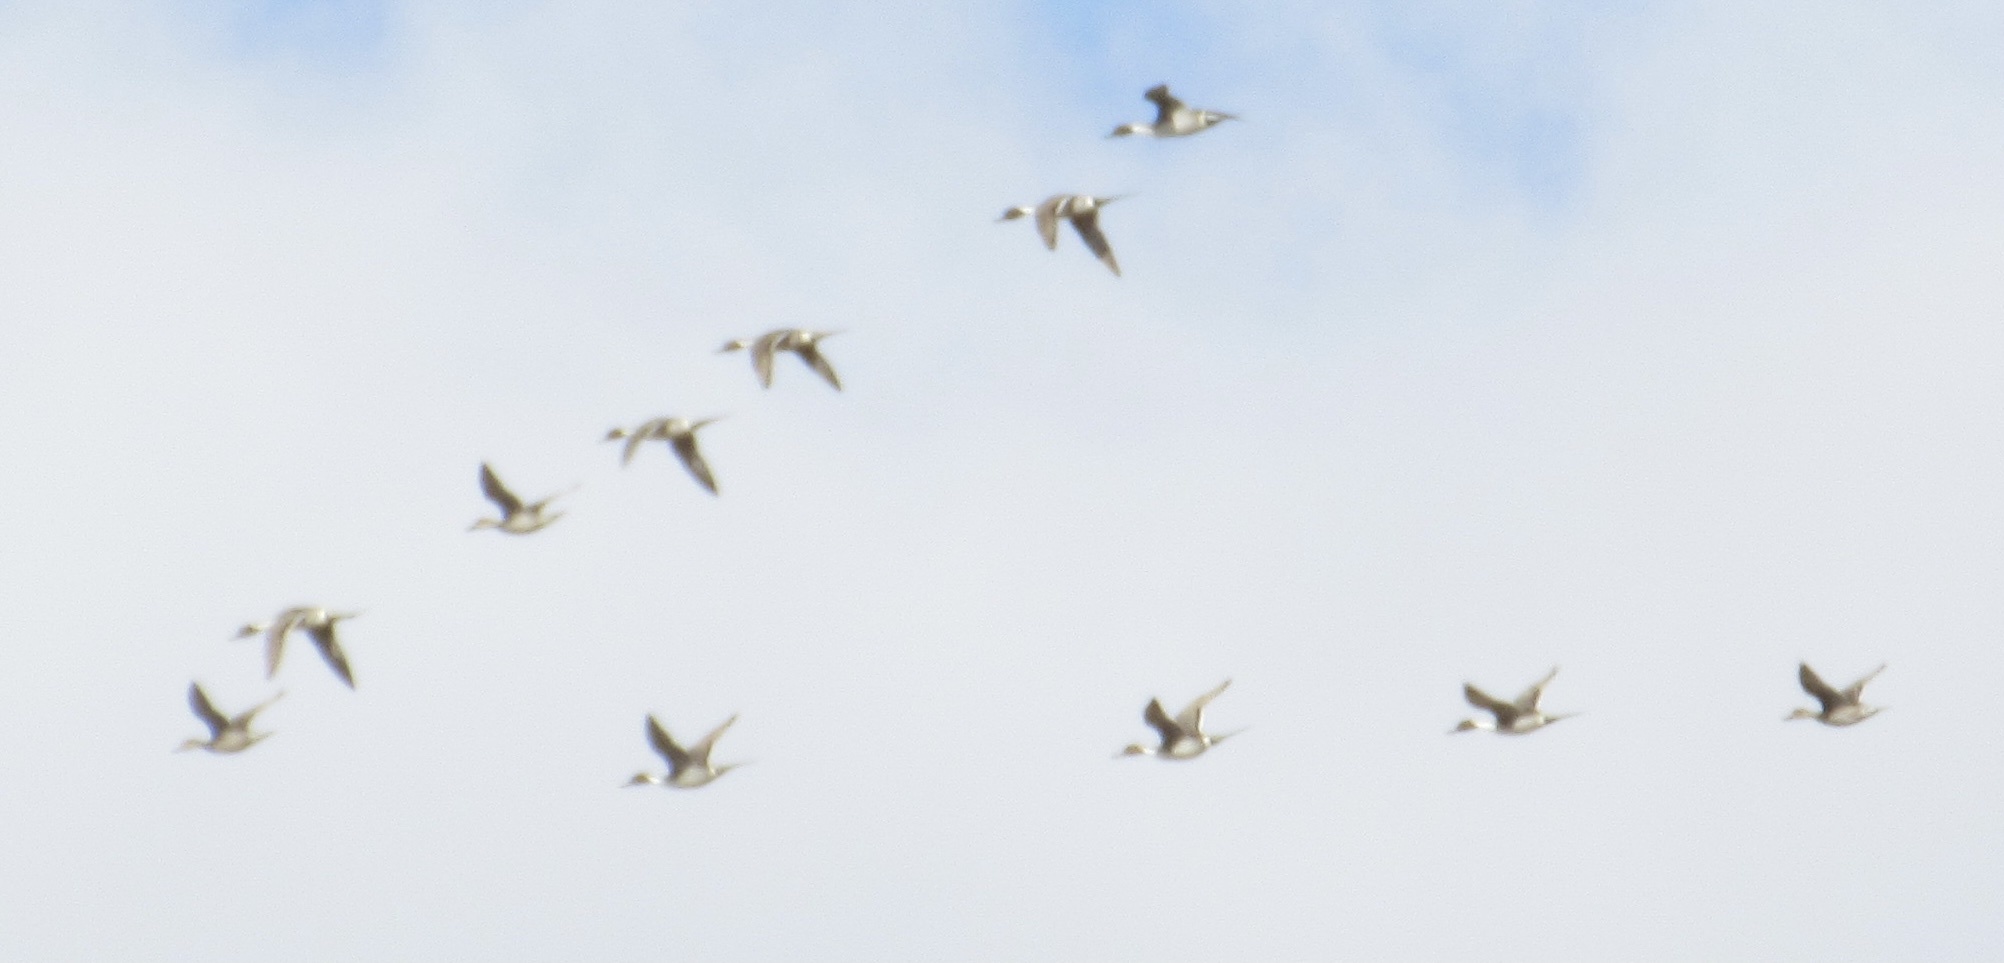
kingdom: Animalia
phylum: Chordata
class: Aves
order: Anseriformes
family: Anatidae
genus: Anas
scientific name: Anas acuta
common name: Northern pintail
